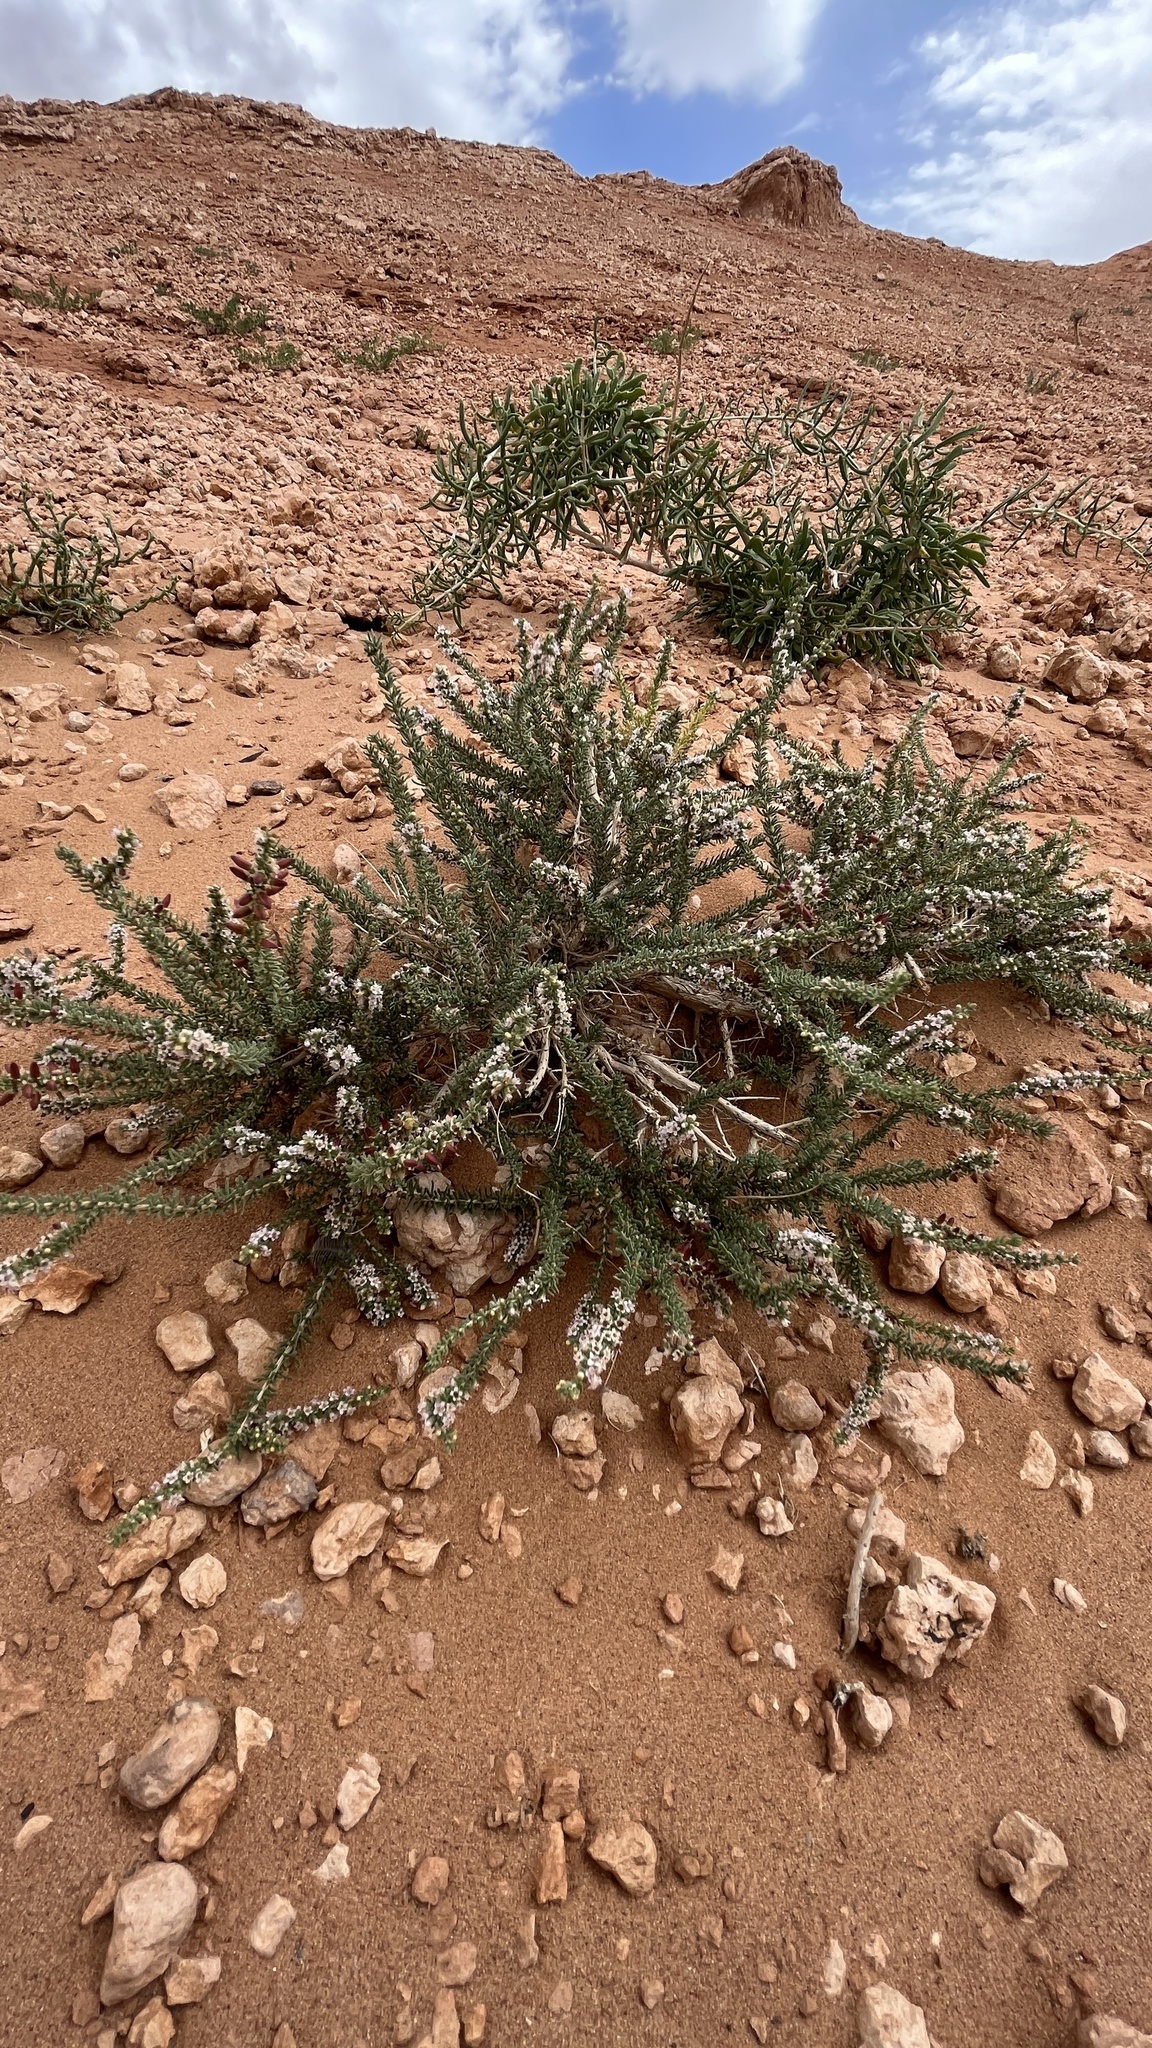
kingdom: Plantae
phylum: Tracheophyta
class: Magnoliopsida
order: Caryophyllales
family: Tamaricaceae
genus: Reaumuria
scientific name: Reaumuria songarica
